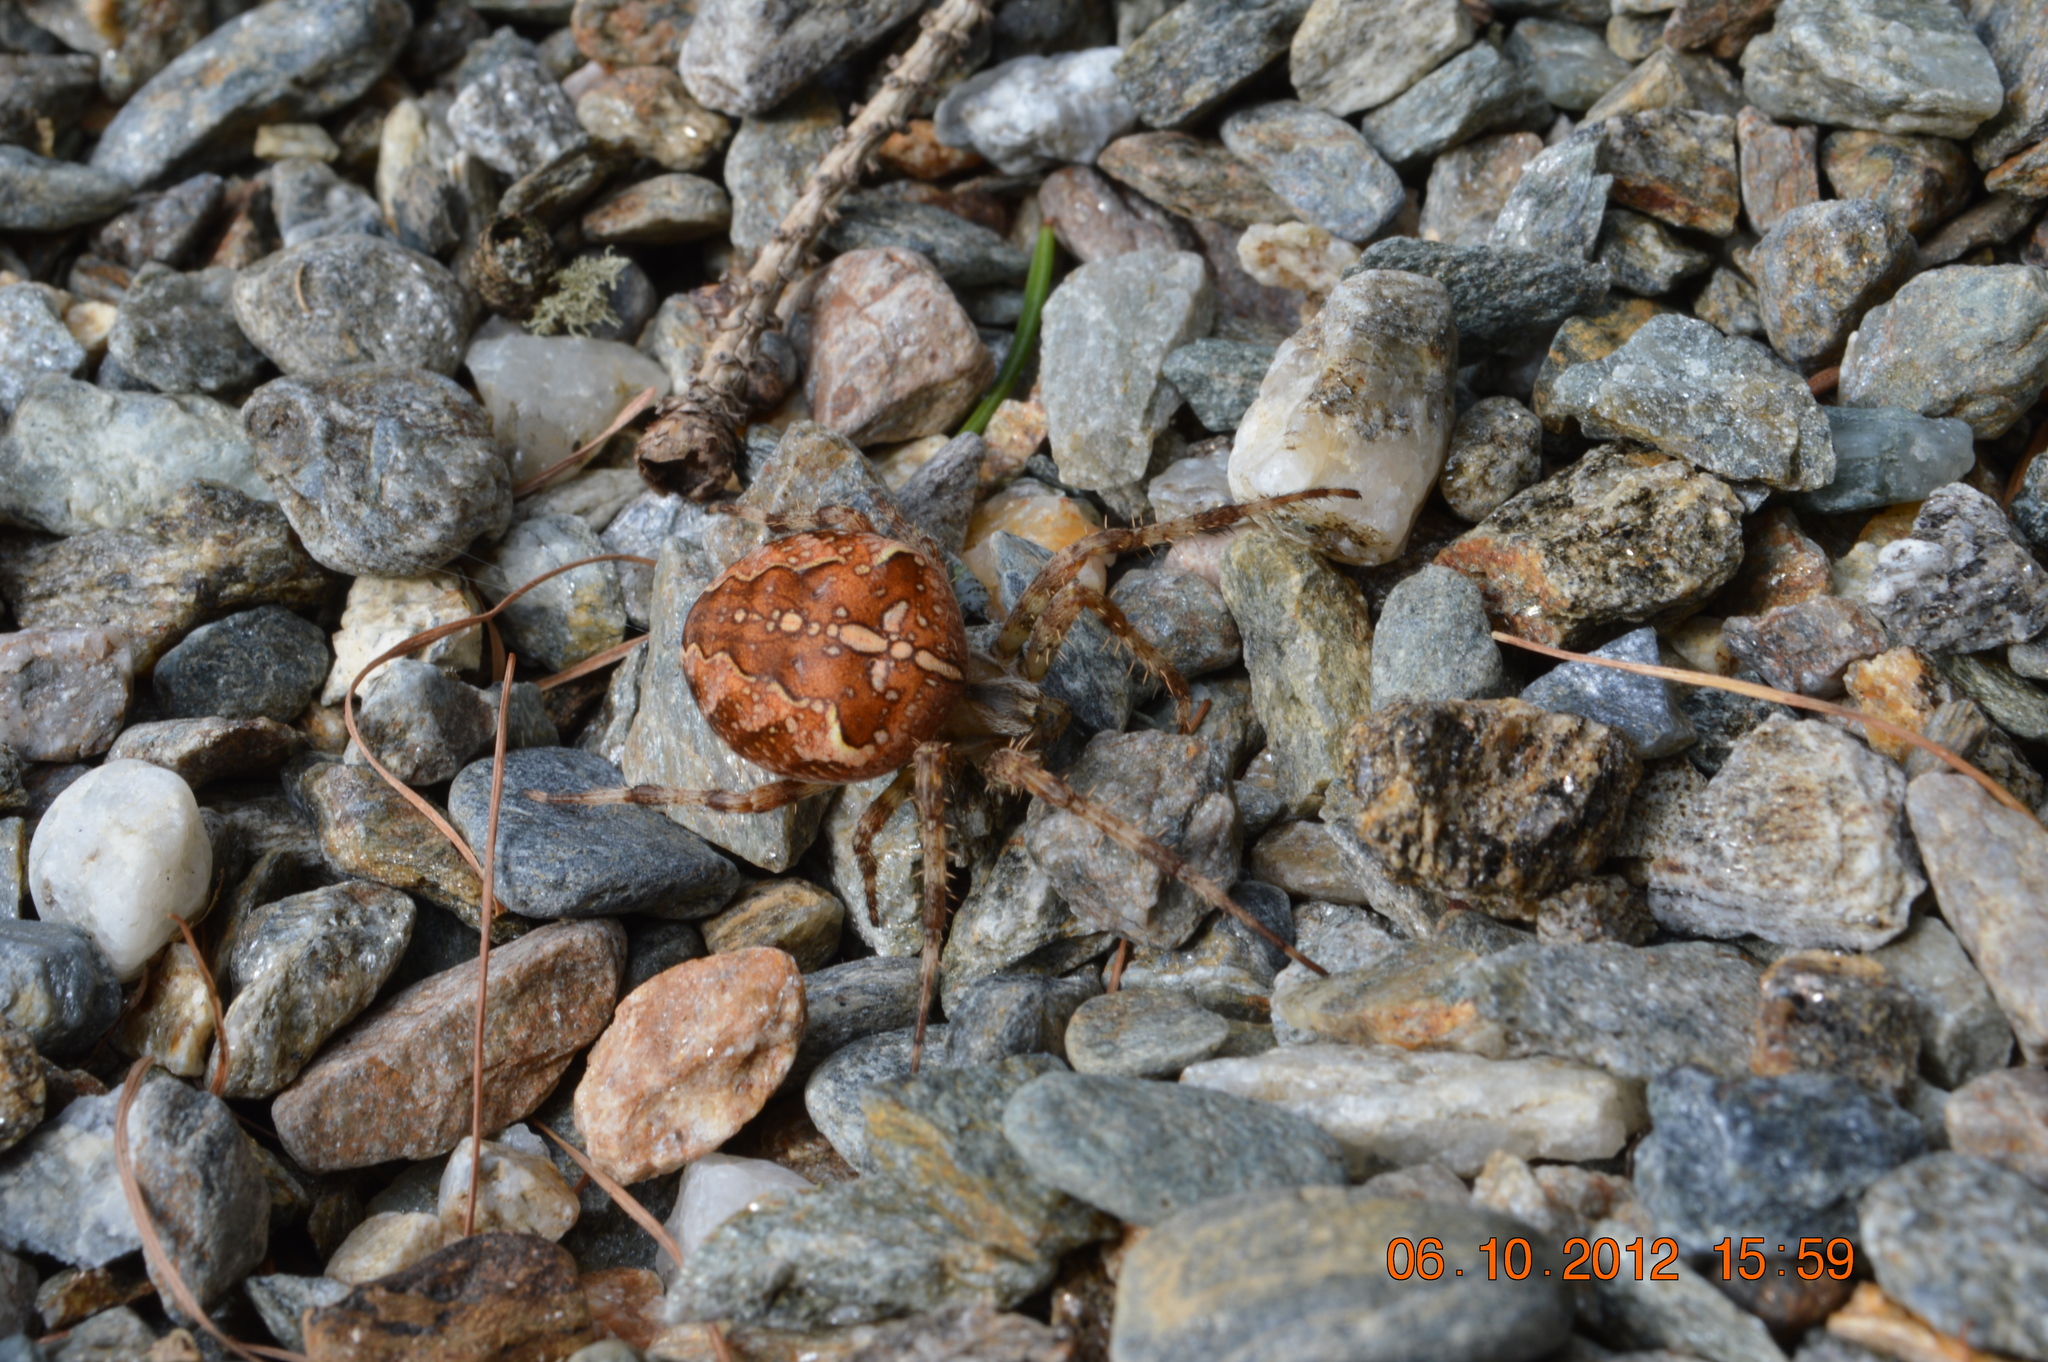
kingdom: Animalia
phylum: Arthropoda
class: Arachnida
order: Araneae
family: Araneidae
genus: Araneus
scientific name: Araneus diadematus
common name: Cross orbweaver
